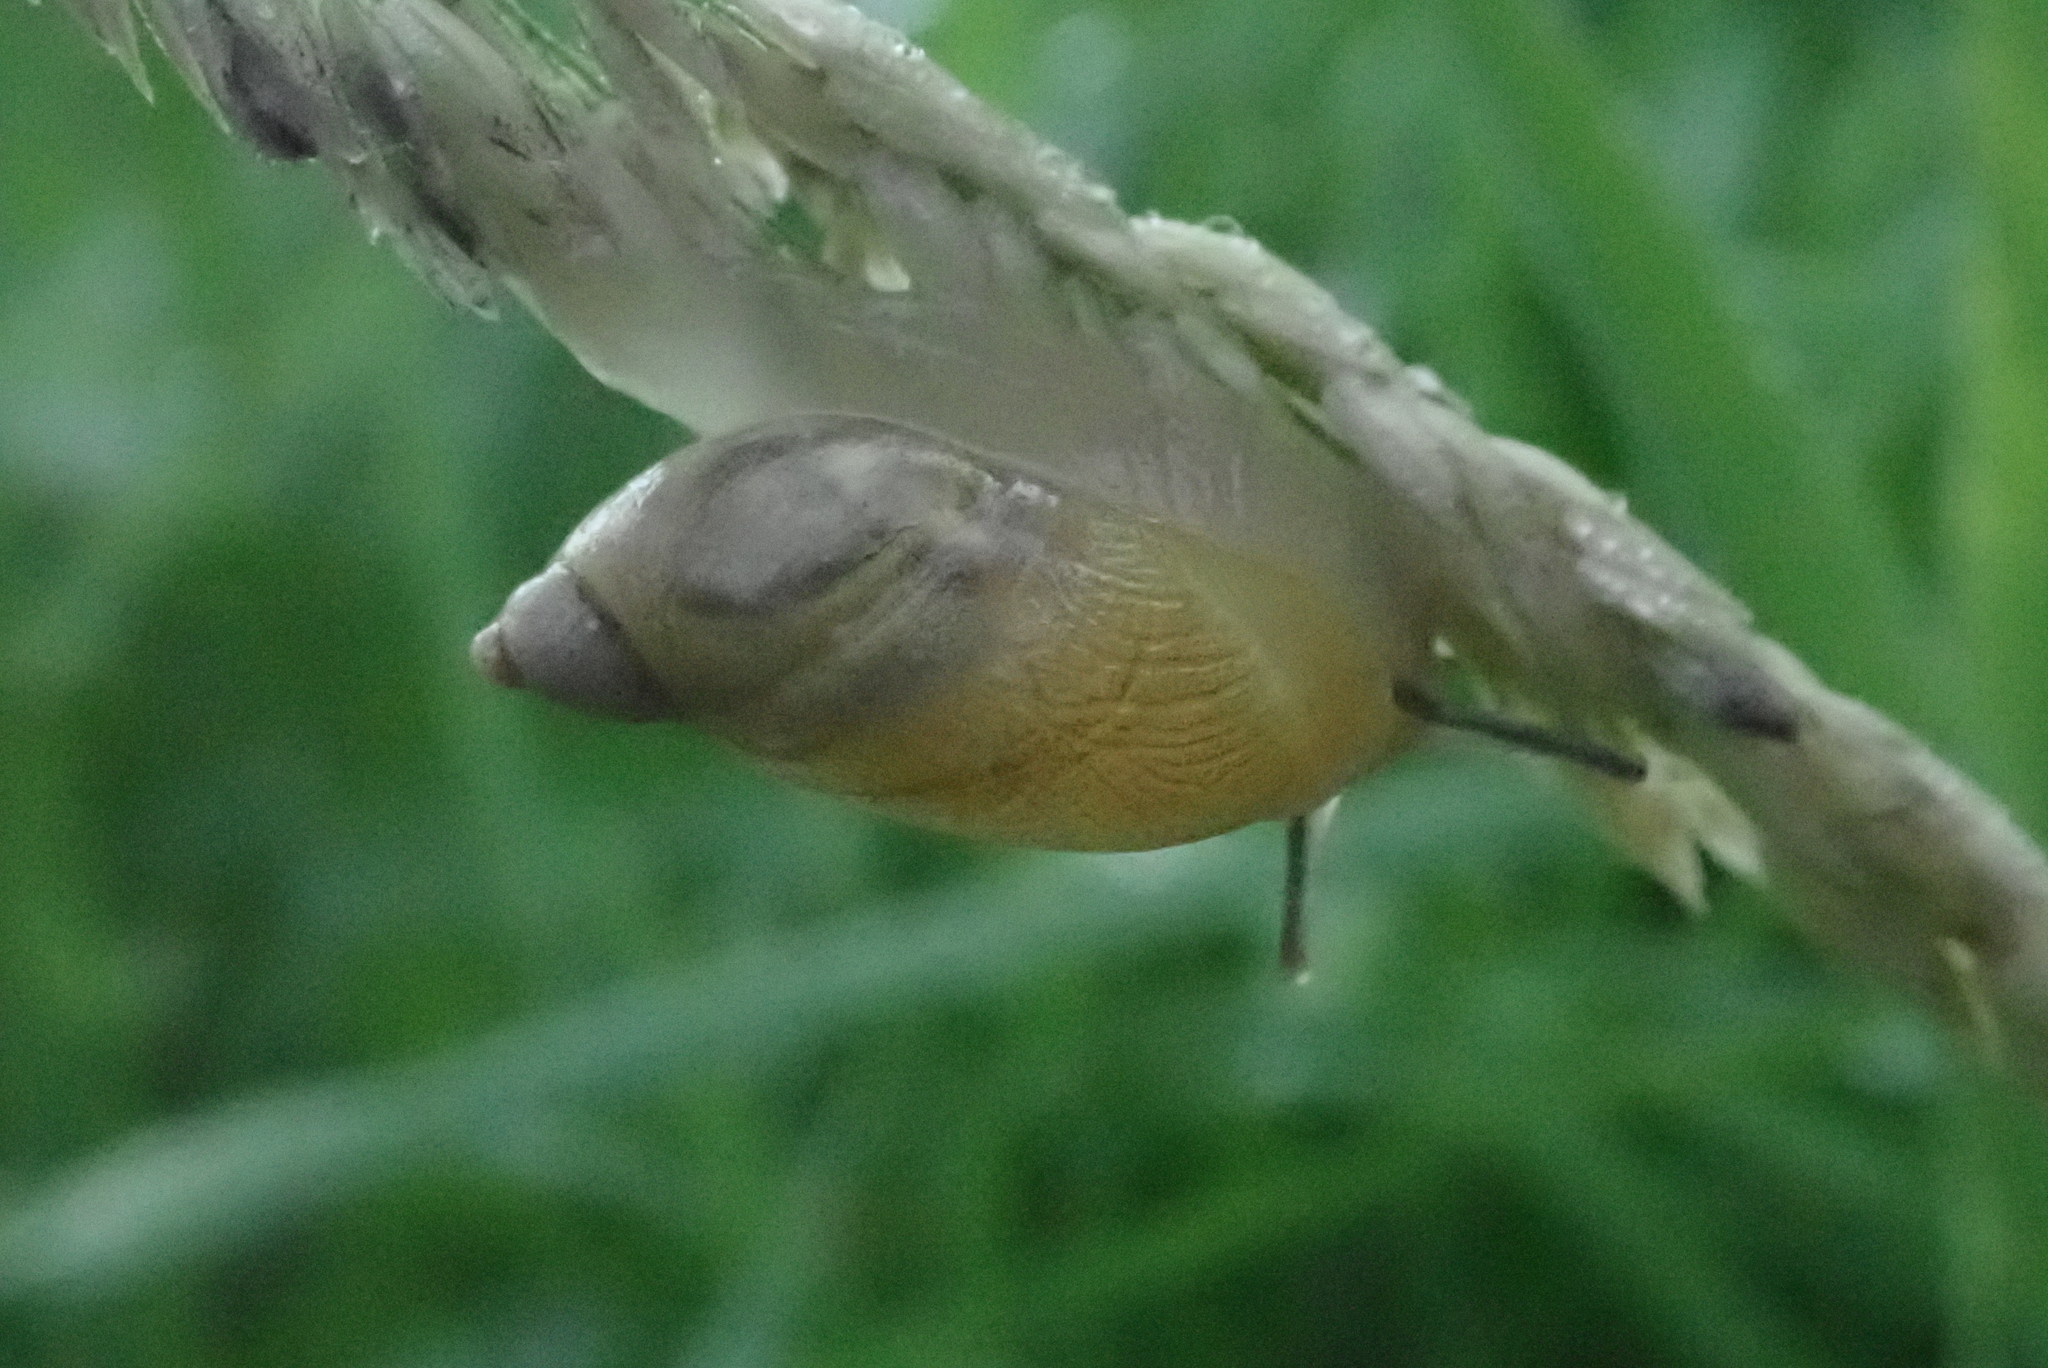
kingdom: Animalia
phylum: Mollusca
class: Gastropoda
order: Stylommatophora
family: Succineidae
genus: Succinea
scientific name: Succinea putris
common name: European ambersnail
